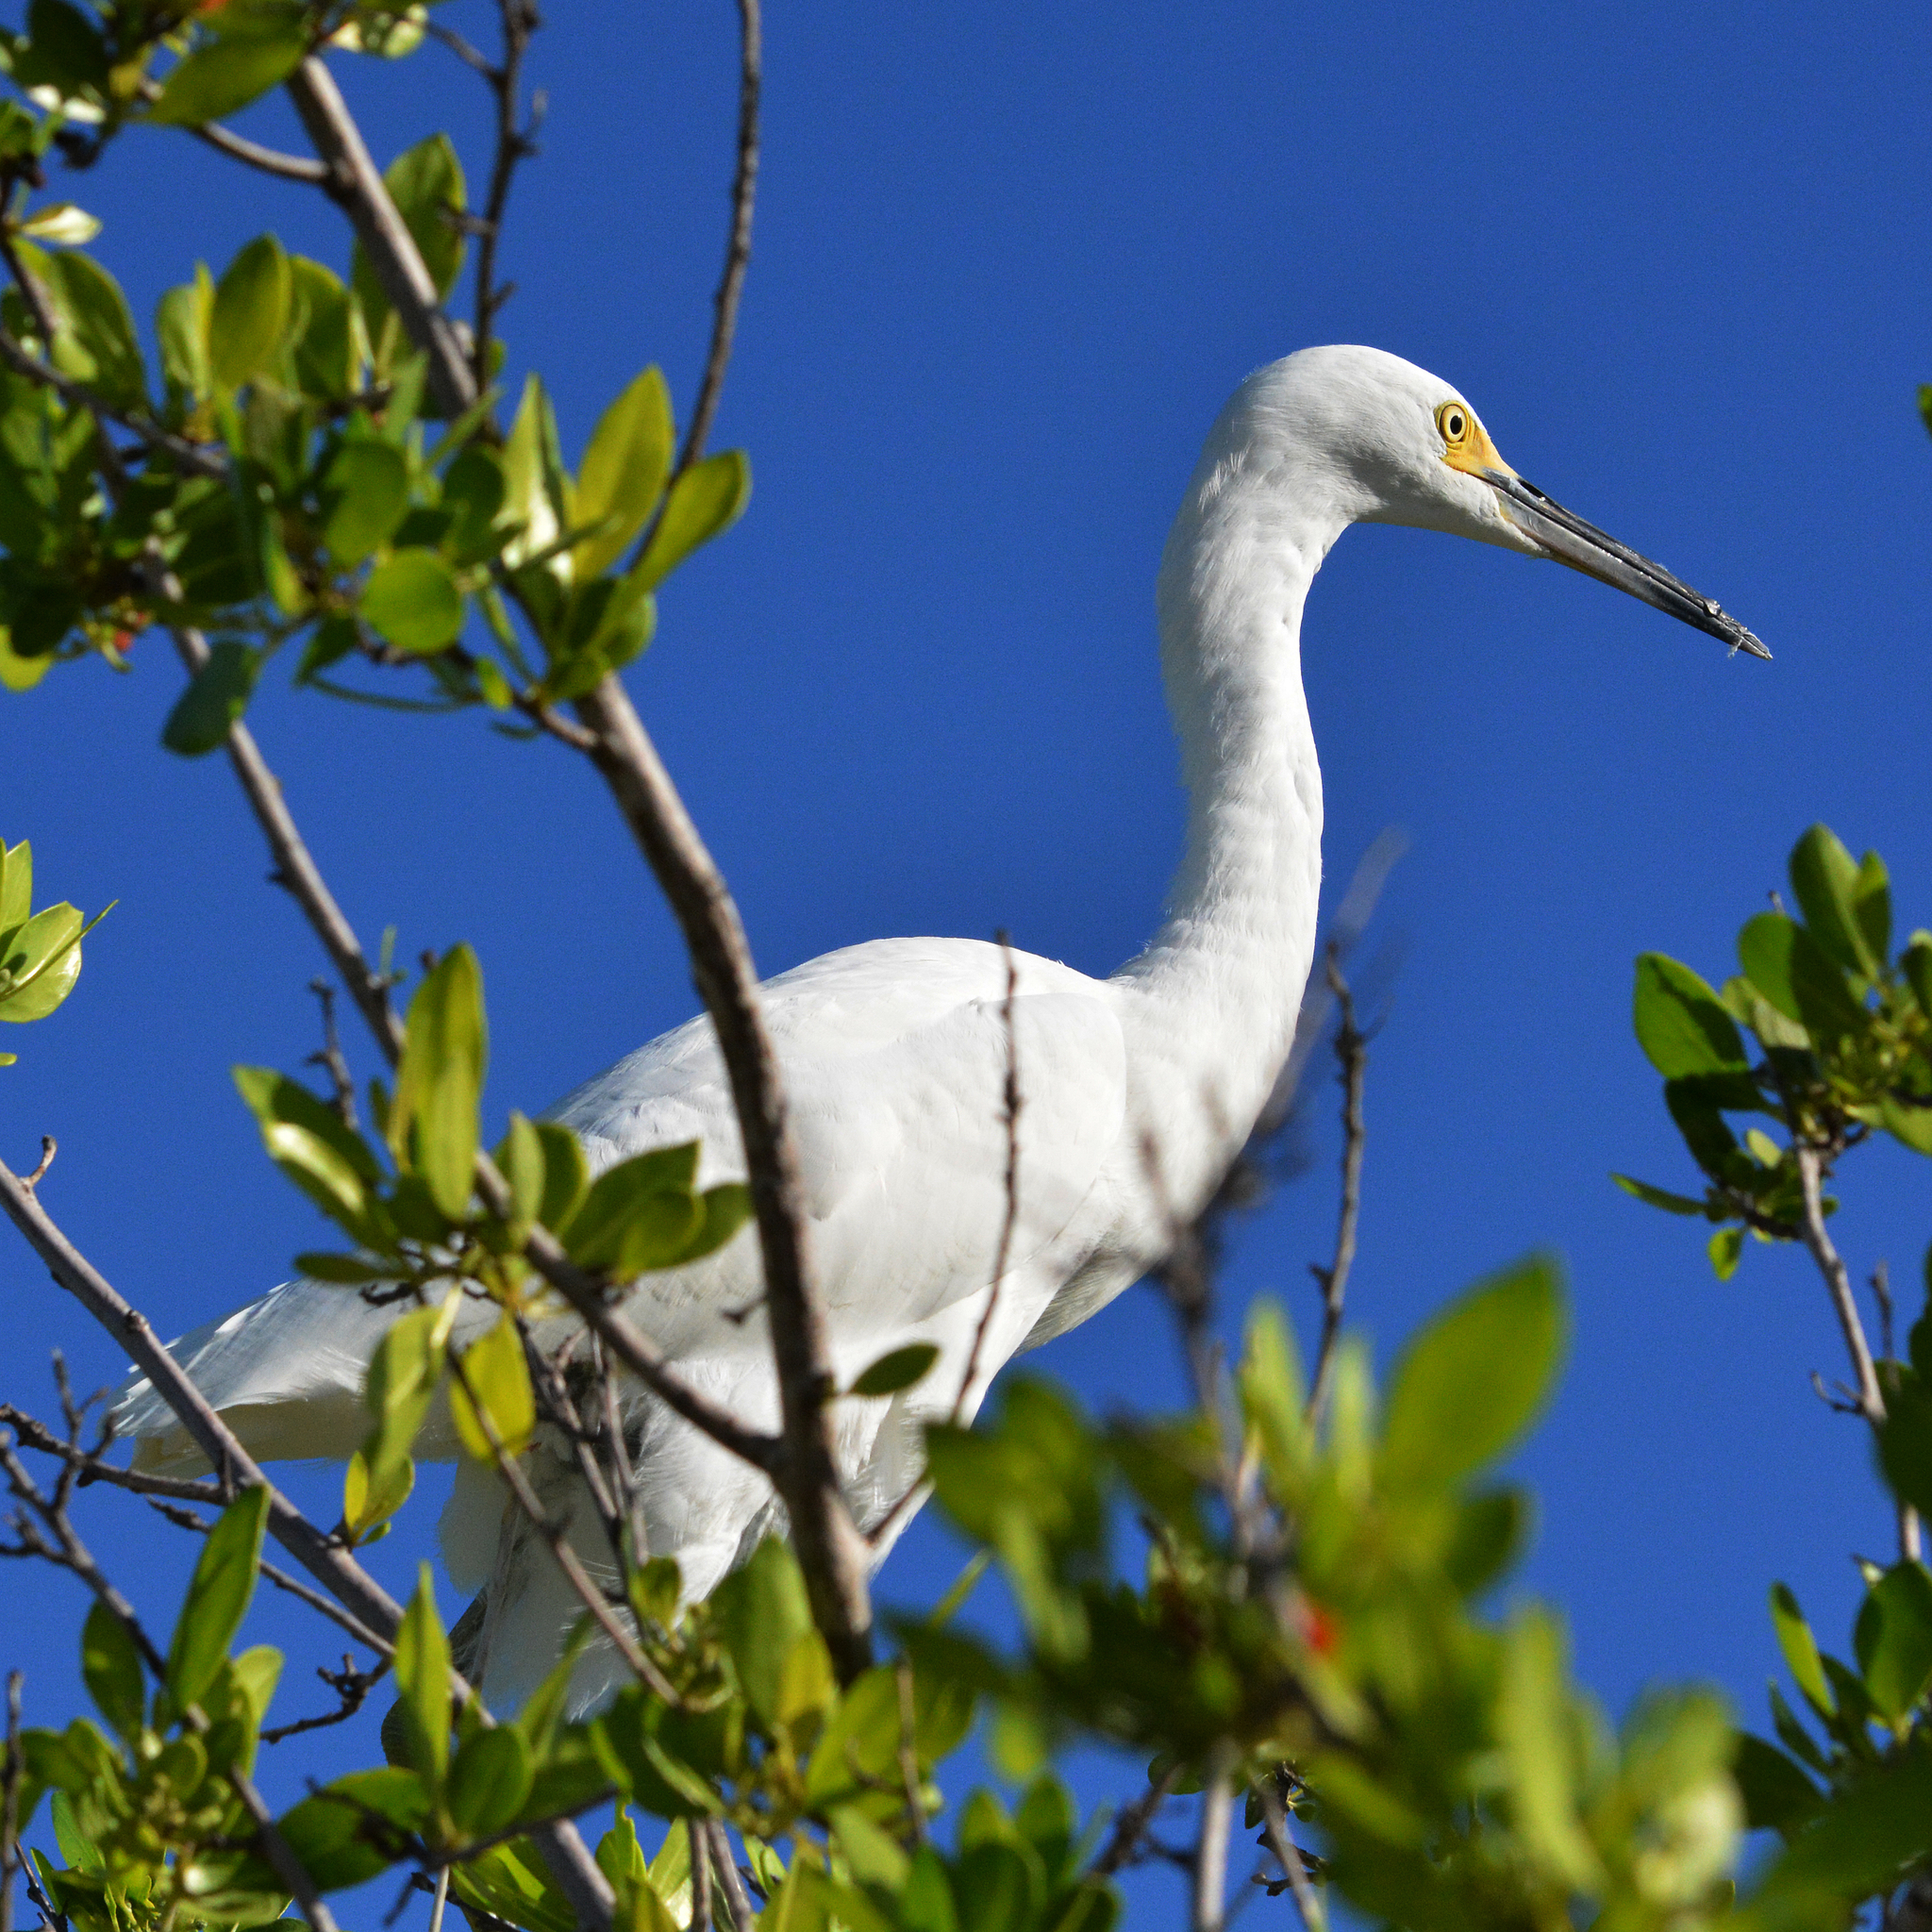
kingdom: Animalia
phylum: Chordata
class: Aves
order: Pelecaniformes
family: Ardeidae
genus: Egretta
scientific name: Egretta thula
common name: Snowy egret
